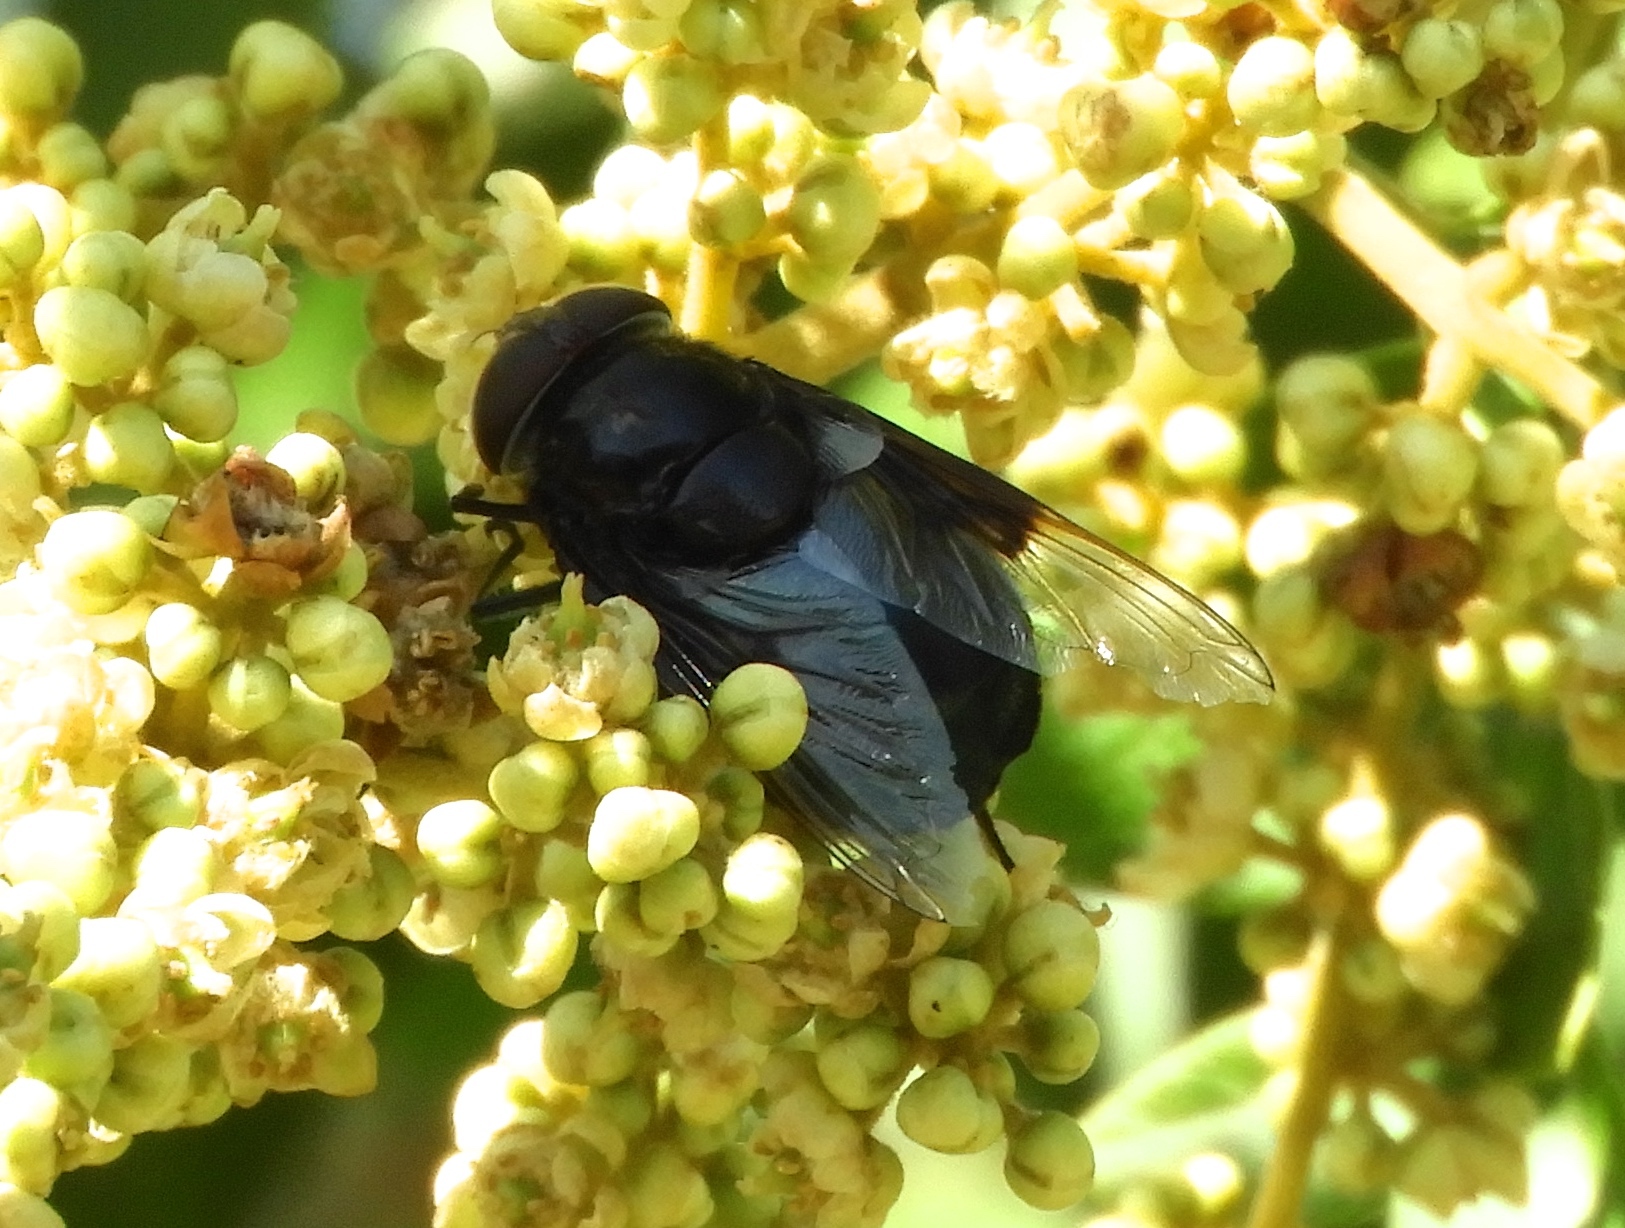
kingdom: Animalia
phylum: Arthropoda
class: Insecta
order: Diptera
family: Syrphidae
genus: Copestylum
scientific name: Copestylum mexicanum
